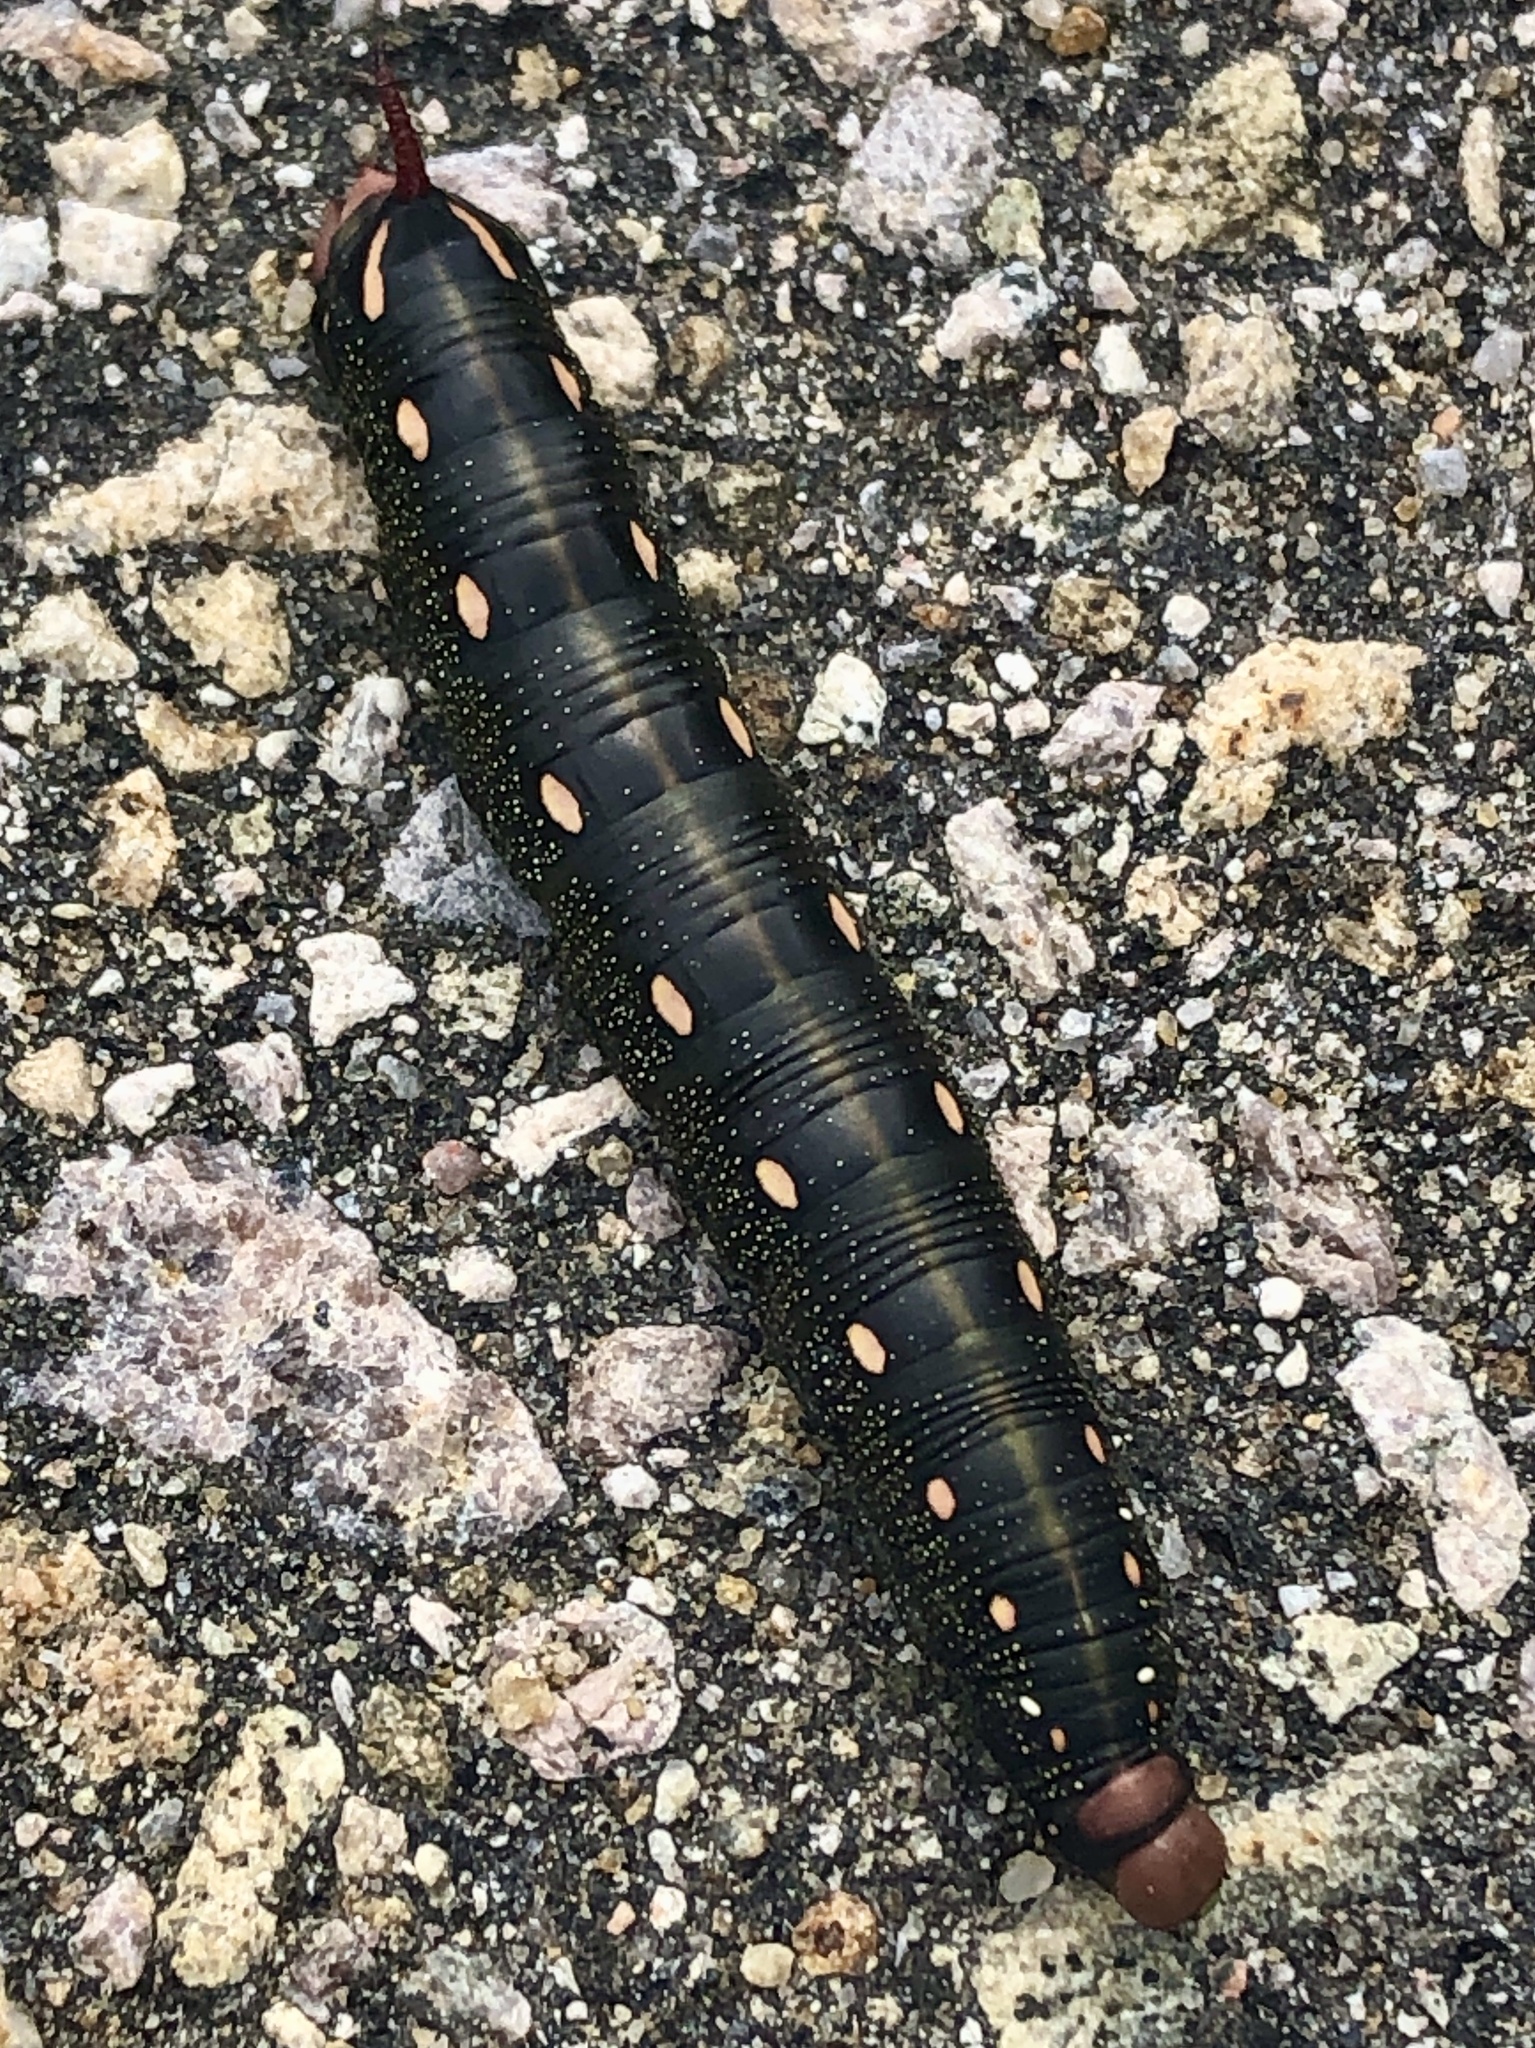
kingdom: Animalia
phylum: Arthropoda
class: Insecta
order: Lepidoptera
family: Sphingidae
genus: Hyles
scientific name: Hyles gallii
